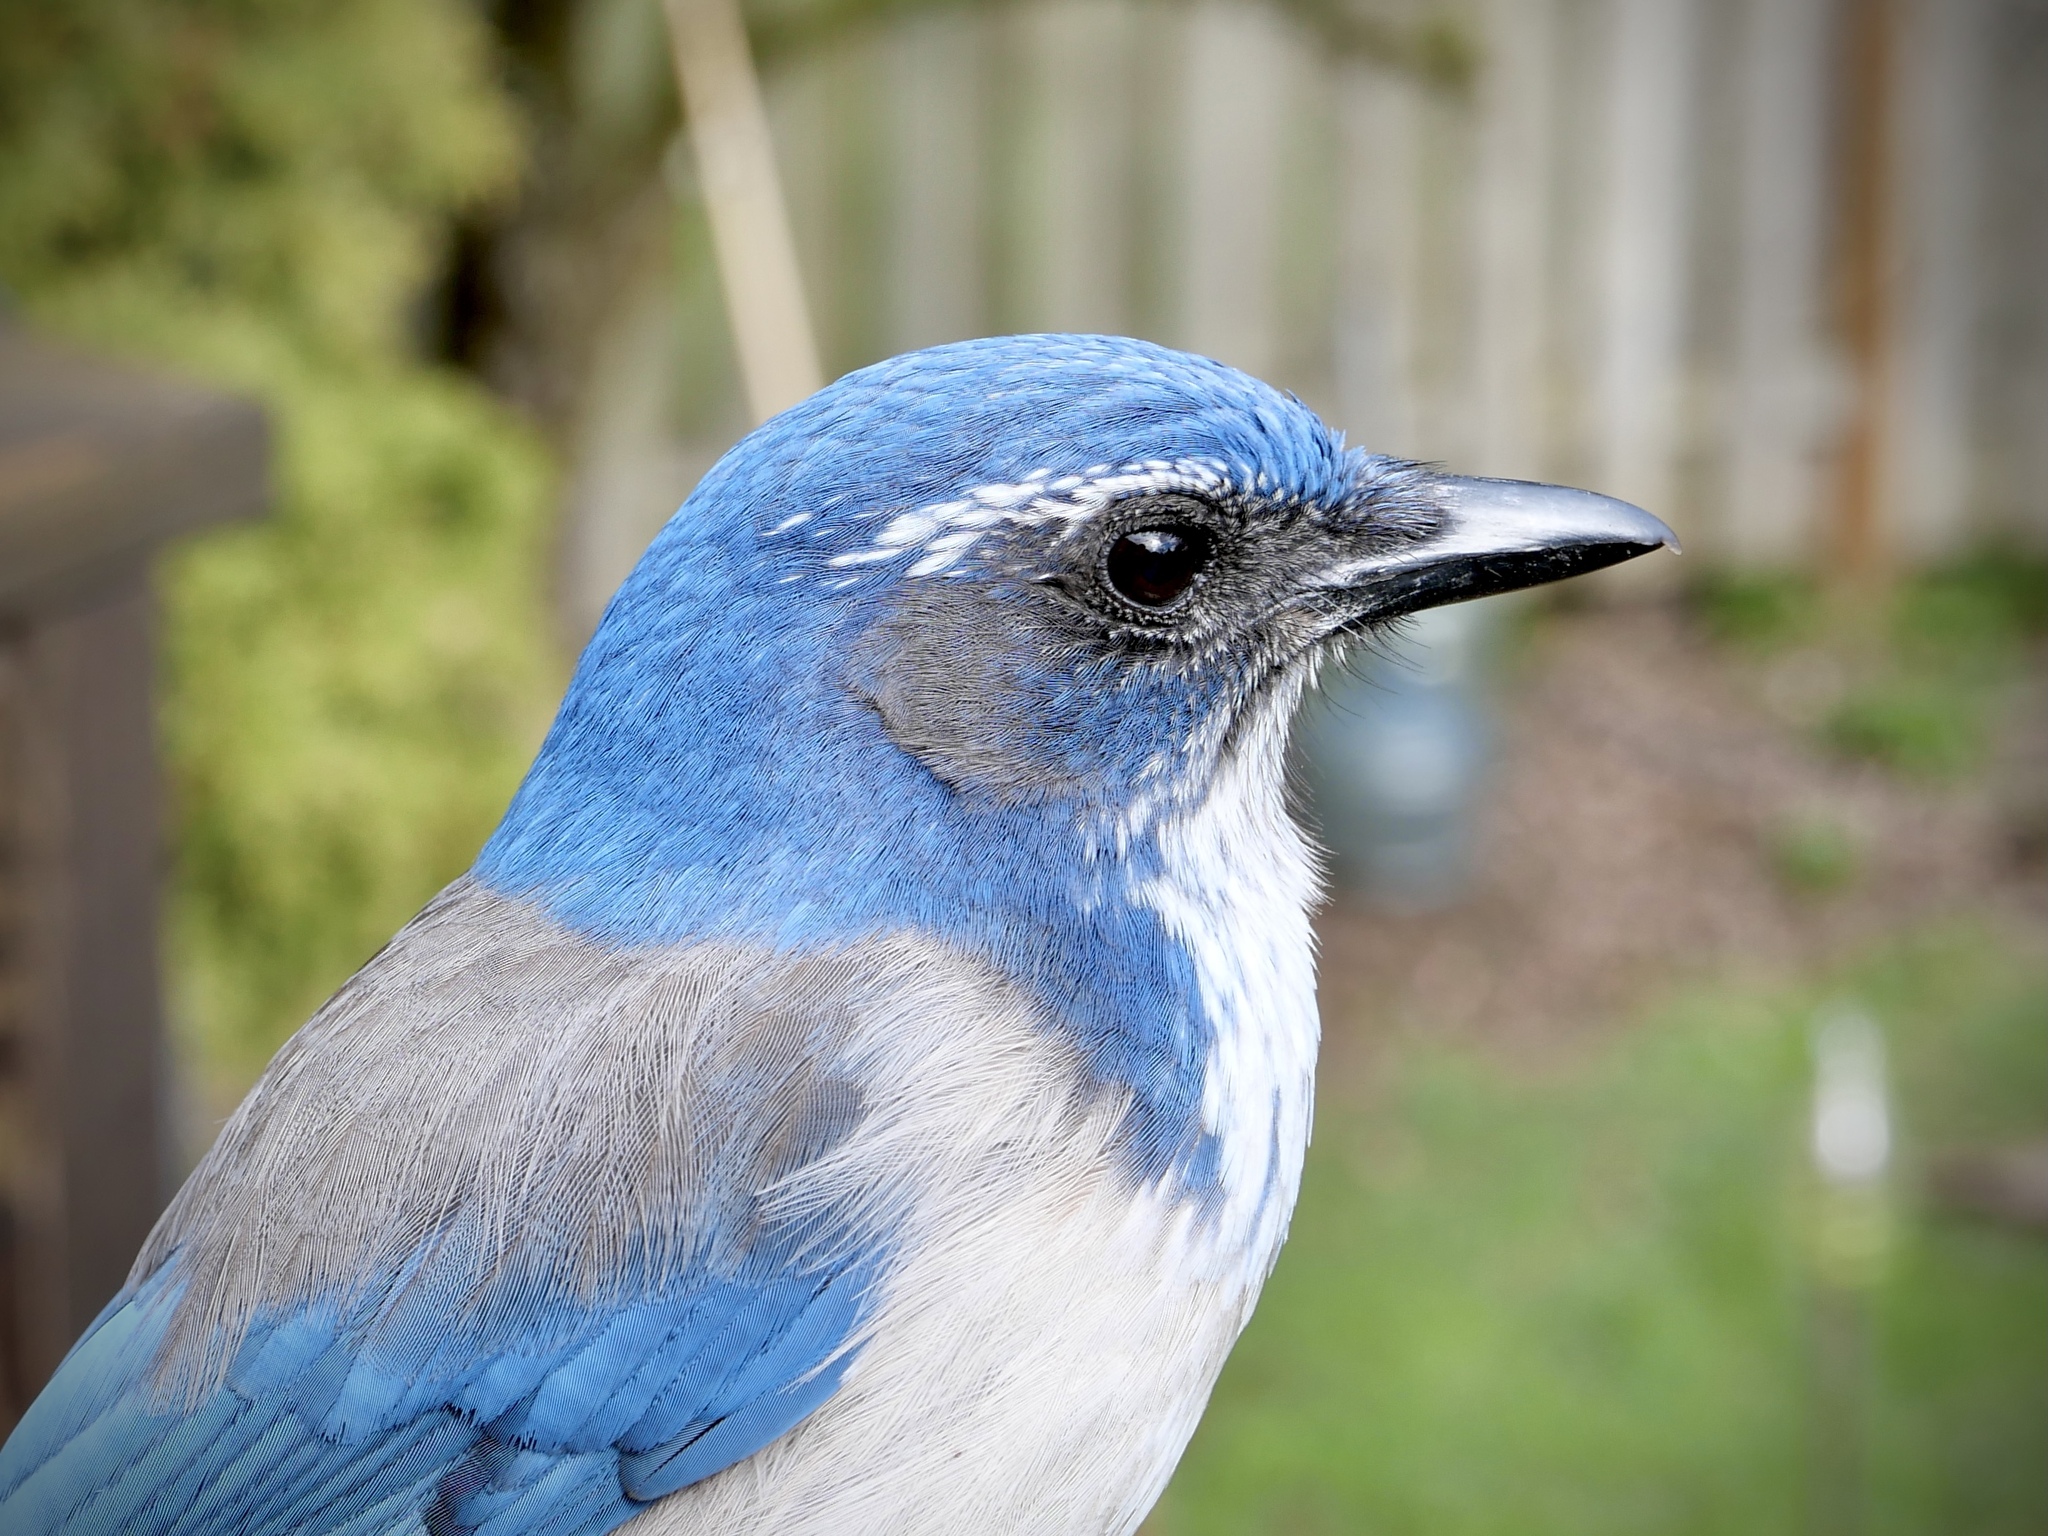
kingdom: Animalia
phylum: Chordata
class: Aves
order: Passeriformes
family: Corvidae
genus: Aphelocoma
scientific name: Aphelocoma californica
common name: California scrub-jay
